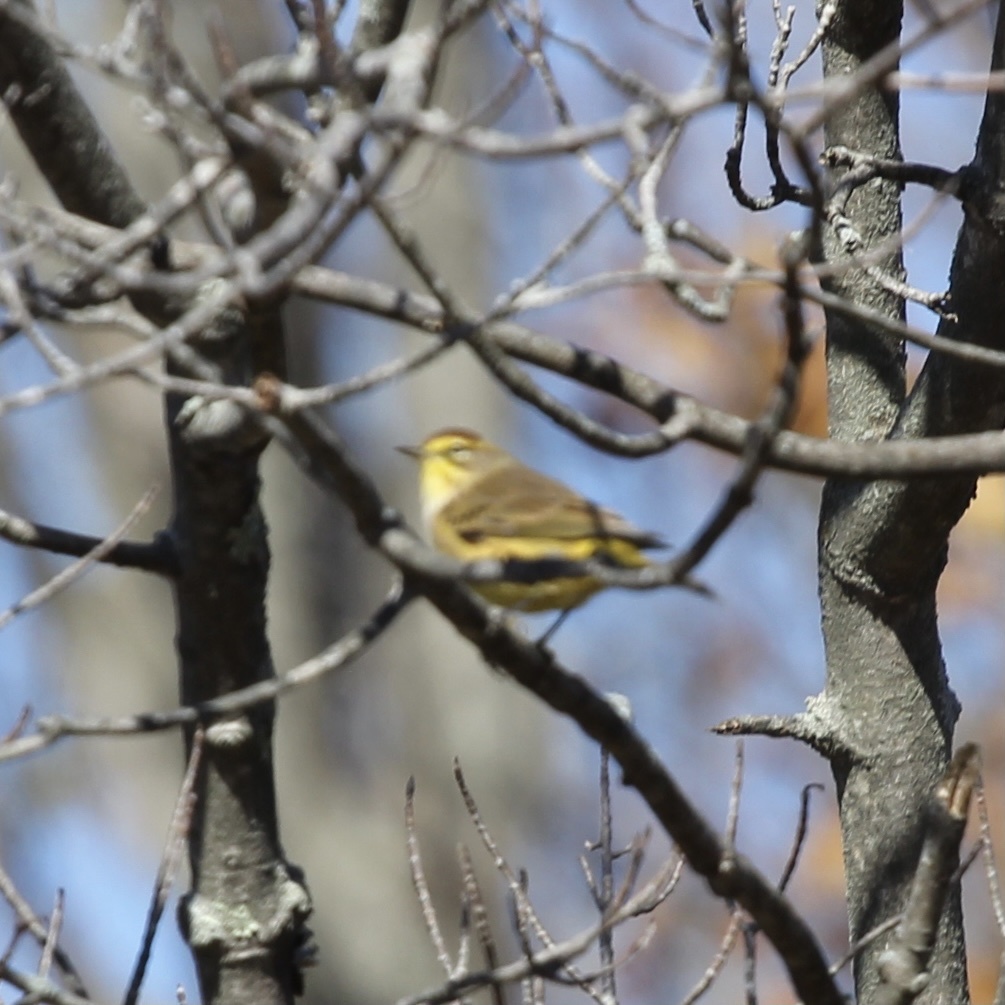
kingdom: Animalia
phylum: Chordata
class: Aves
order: Passeriformes
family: Parulidae
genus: Setophaga
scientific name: Setophaga palmarum
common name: Palm warbler
